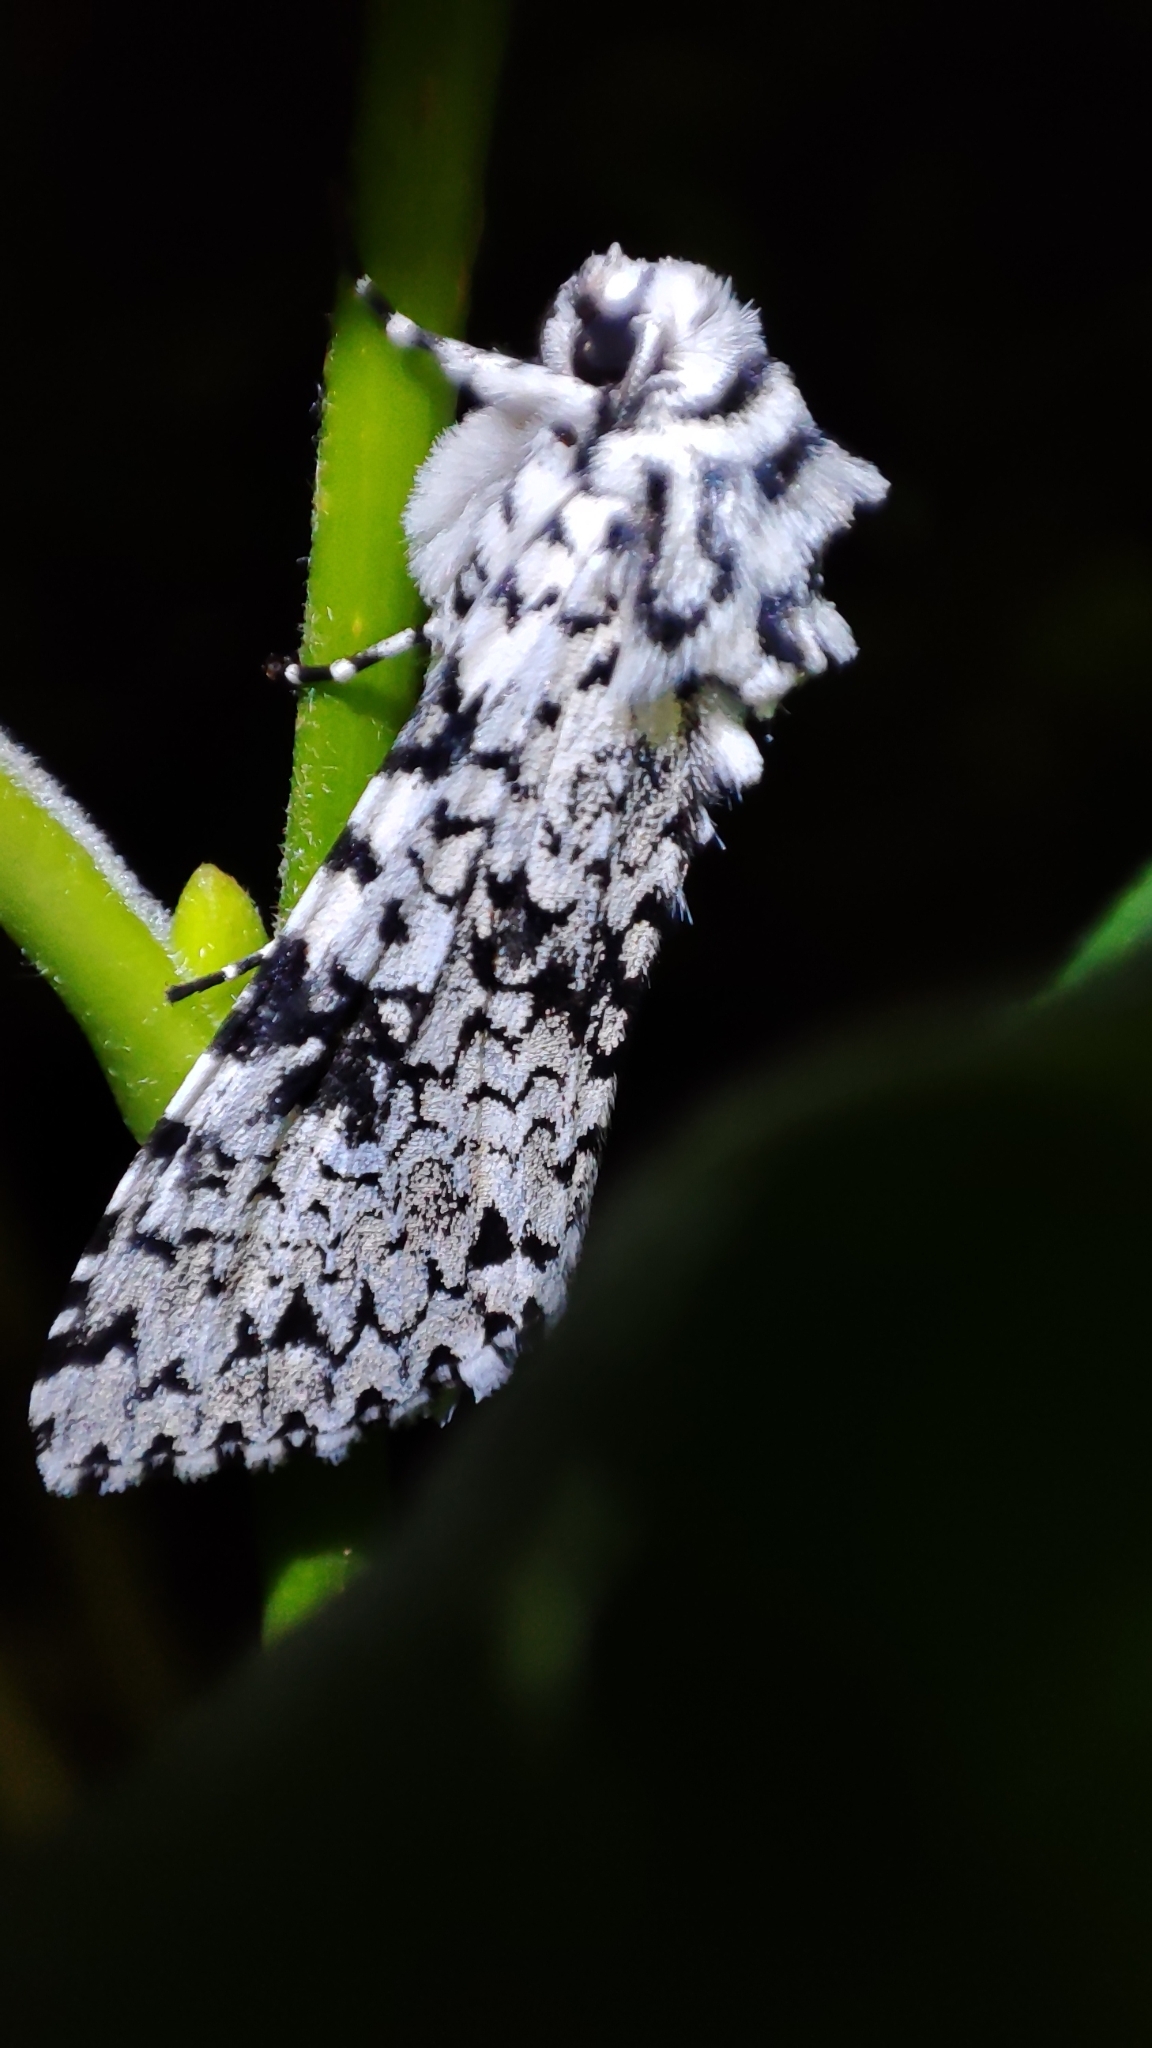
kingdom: Animalia
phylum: Arthropoda
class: Insecta
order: Lepidoptera
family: Noctuidae
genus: Polia
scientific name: Polia goliath
